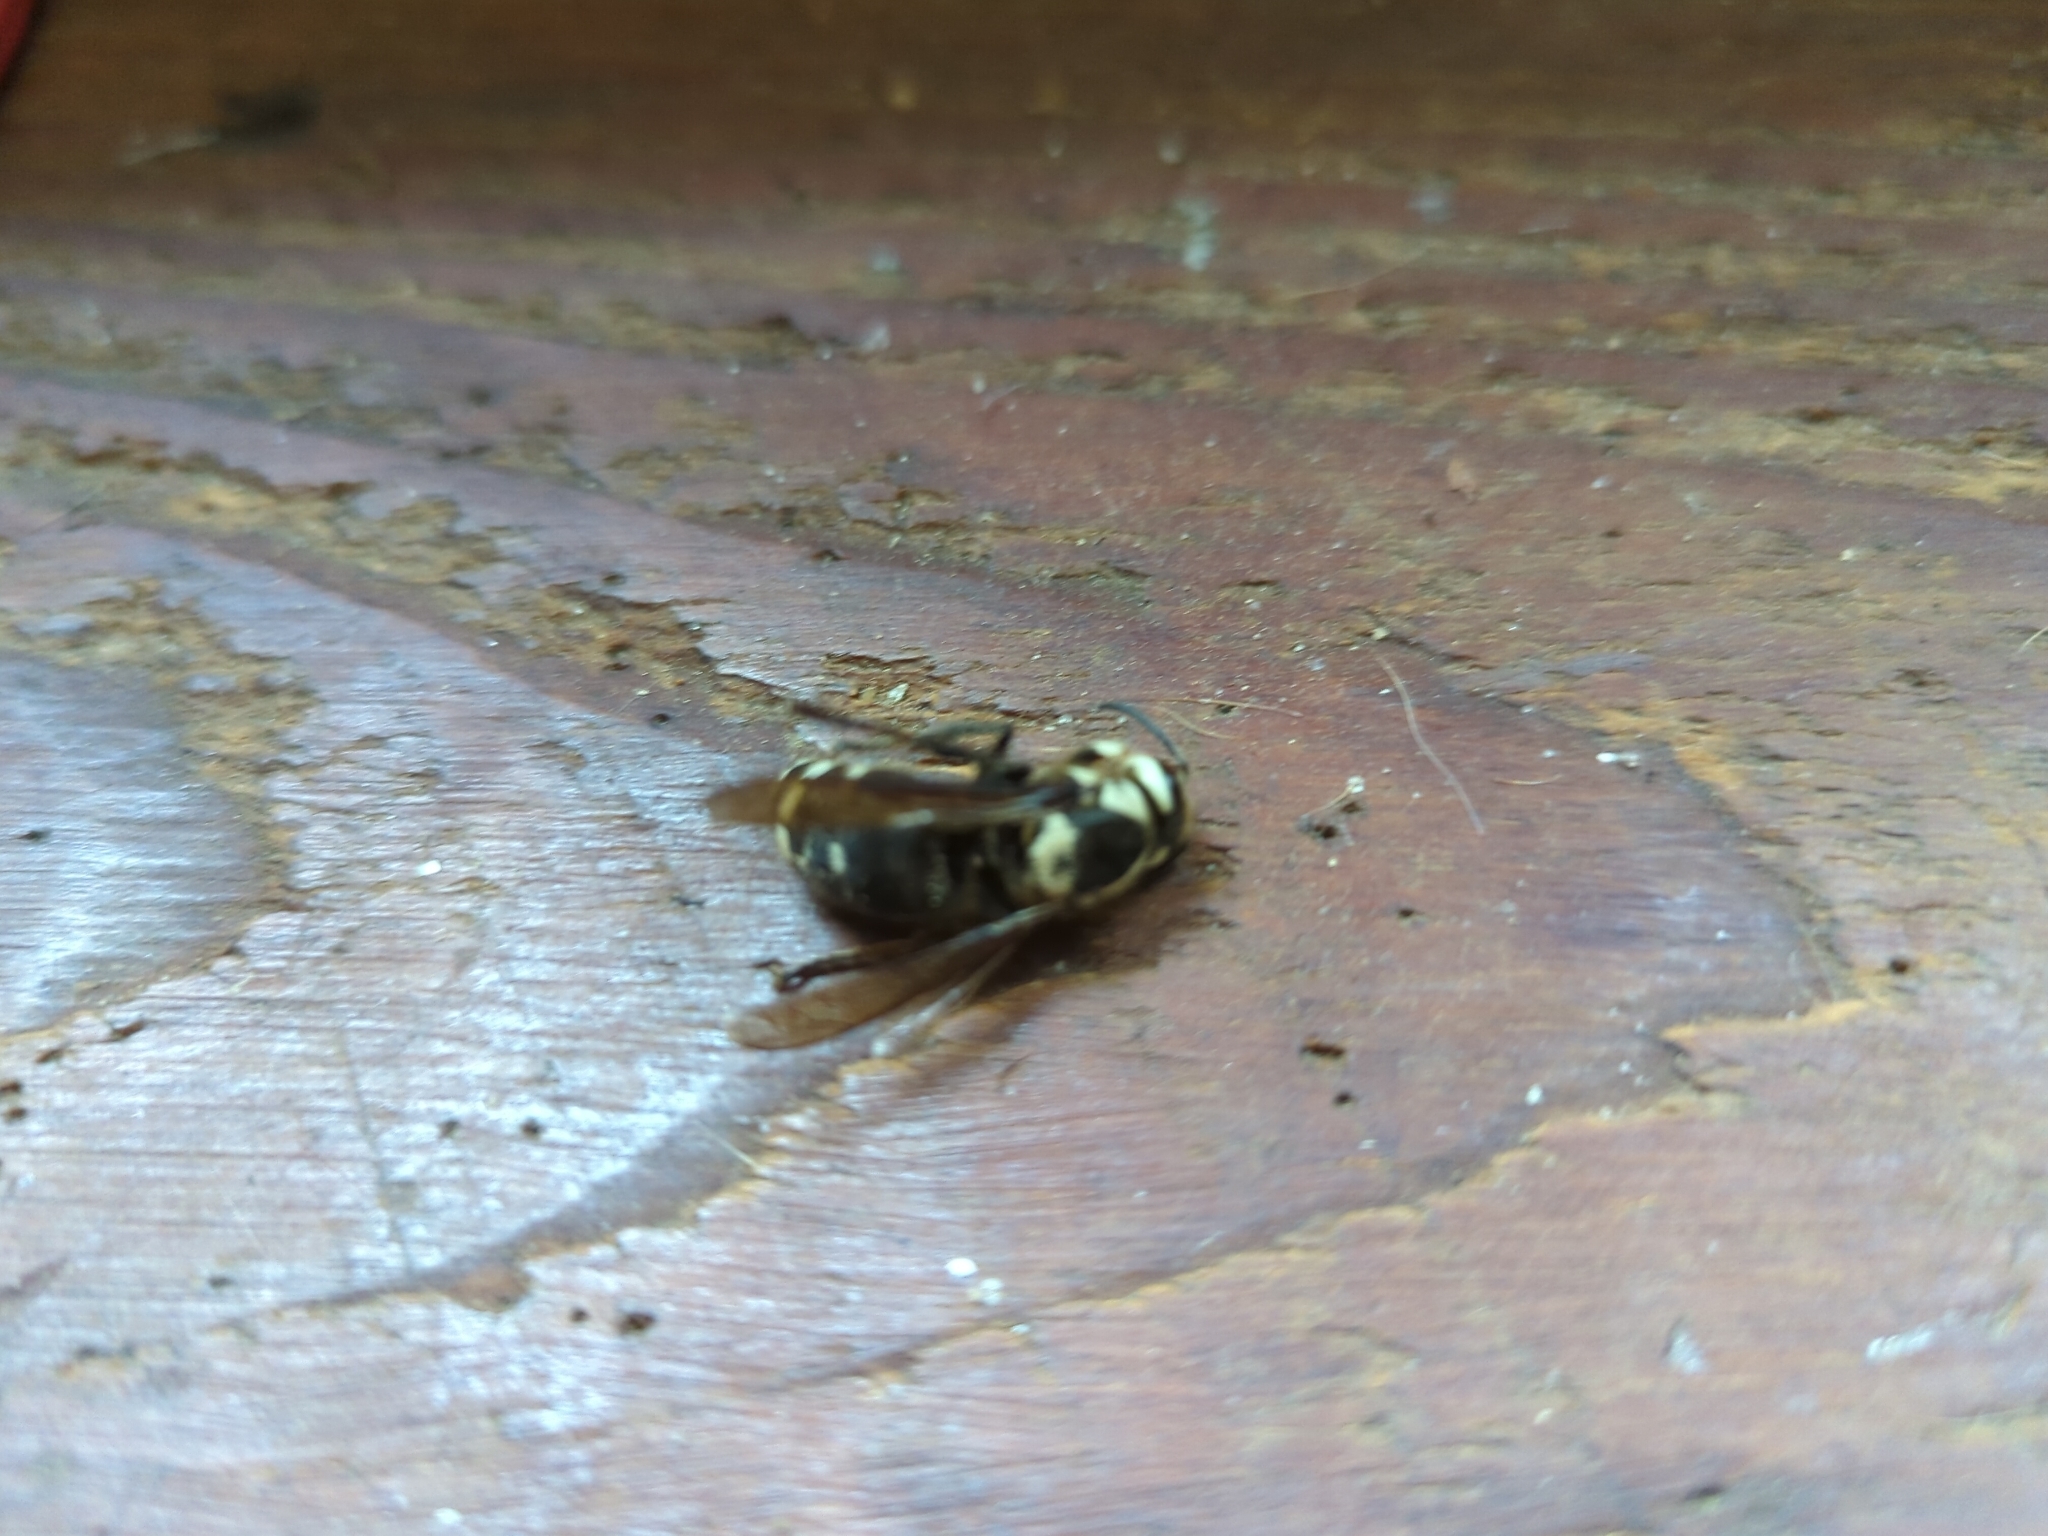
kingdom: Animalia
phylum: Arthropoda
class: Insecta
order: Hymenoptera
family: Vespidae
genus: Dolichovespula
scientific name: Dolichovespula maculata
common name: Bald-faced hornet
